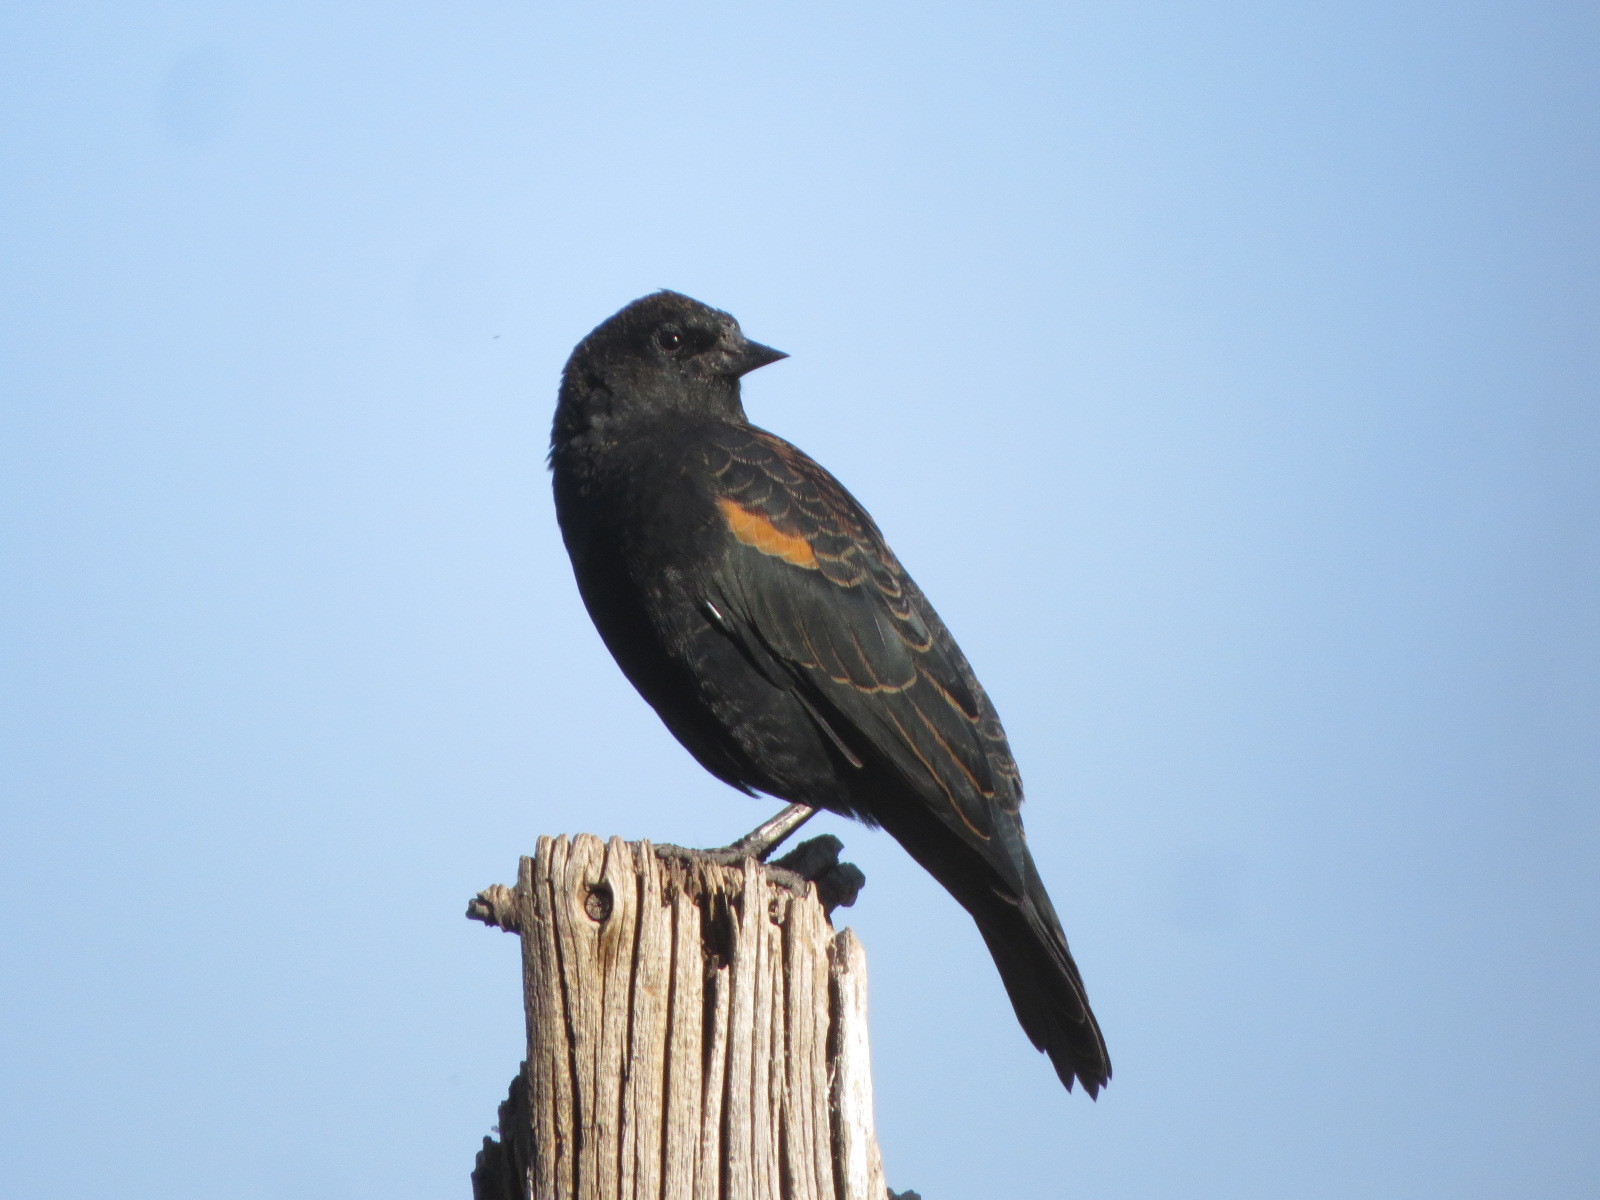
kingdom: Animalia
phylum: Chordata
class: Aves
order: Passeriformes
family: Icteridae
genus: Agelaius
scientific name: Agelaius phoeniceus
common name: Red-winged blackbird
